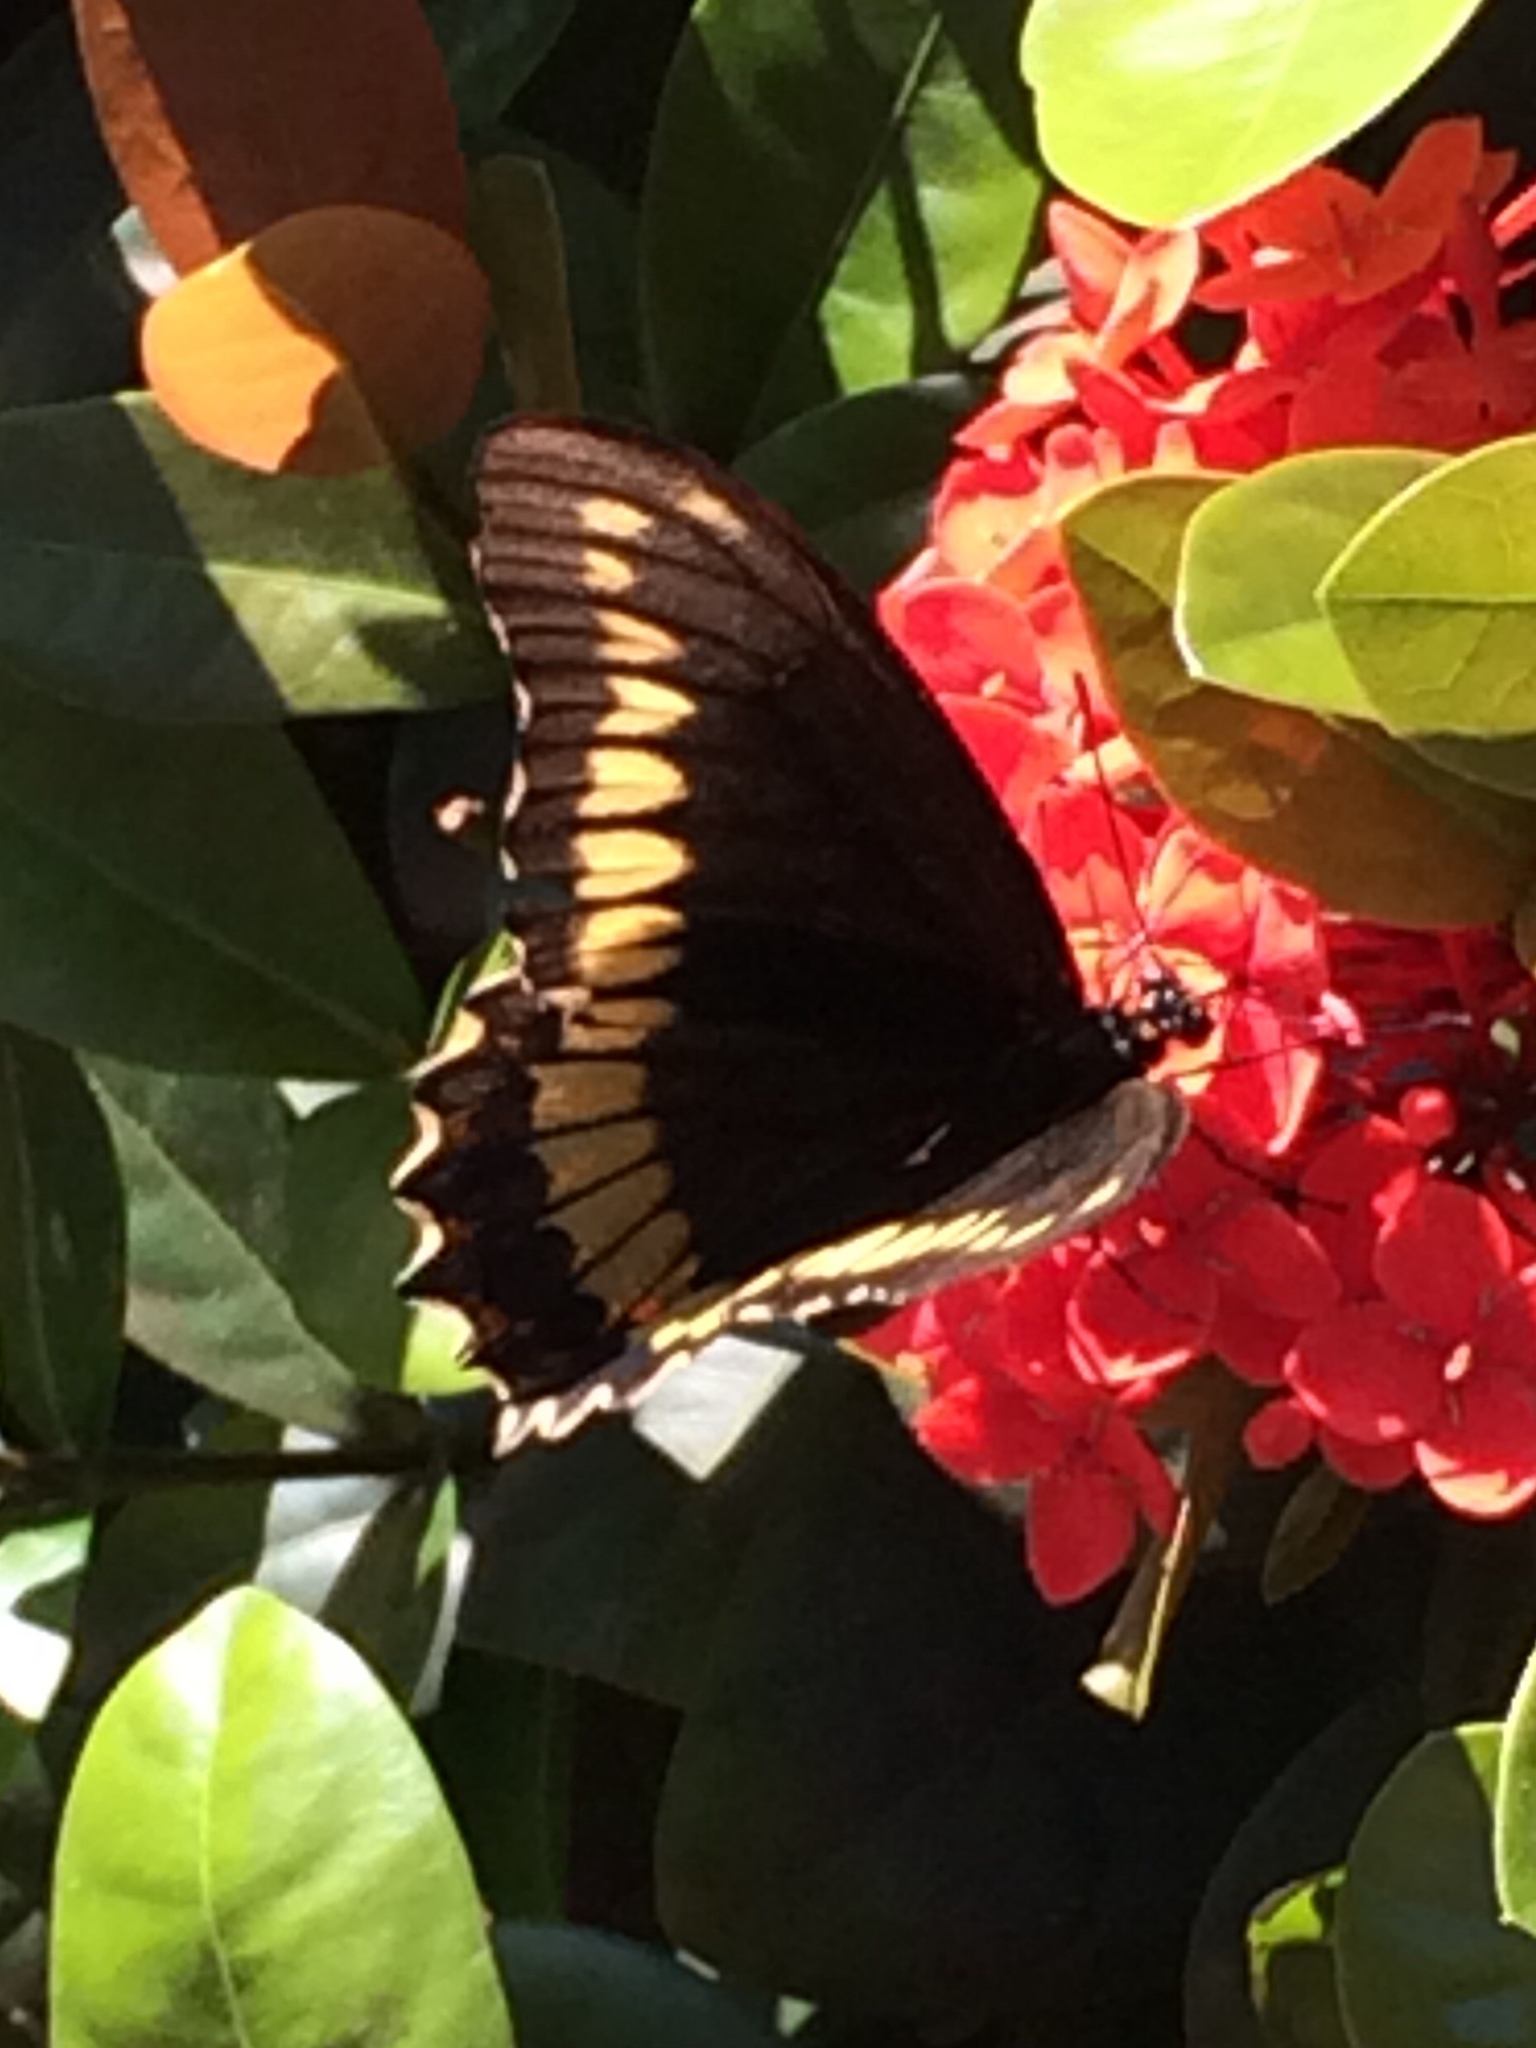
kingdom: Animalia
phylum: Arthropoda
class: Insecta
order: Lepidoptera
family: Papilionidae
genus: Battus
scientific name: Battus polydamas
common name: Polydamas swallowtail
